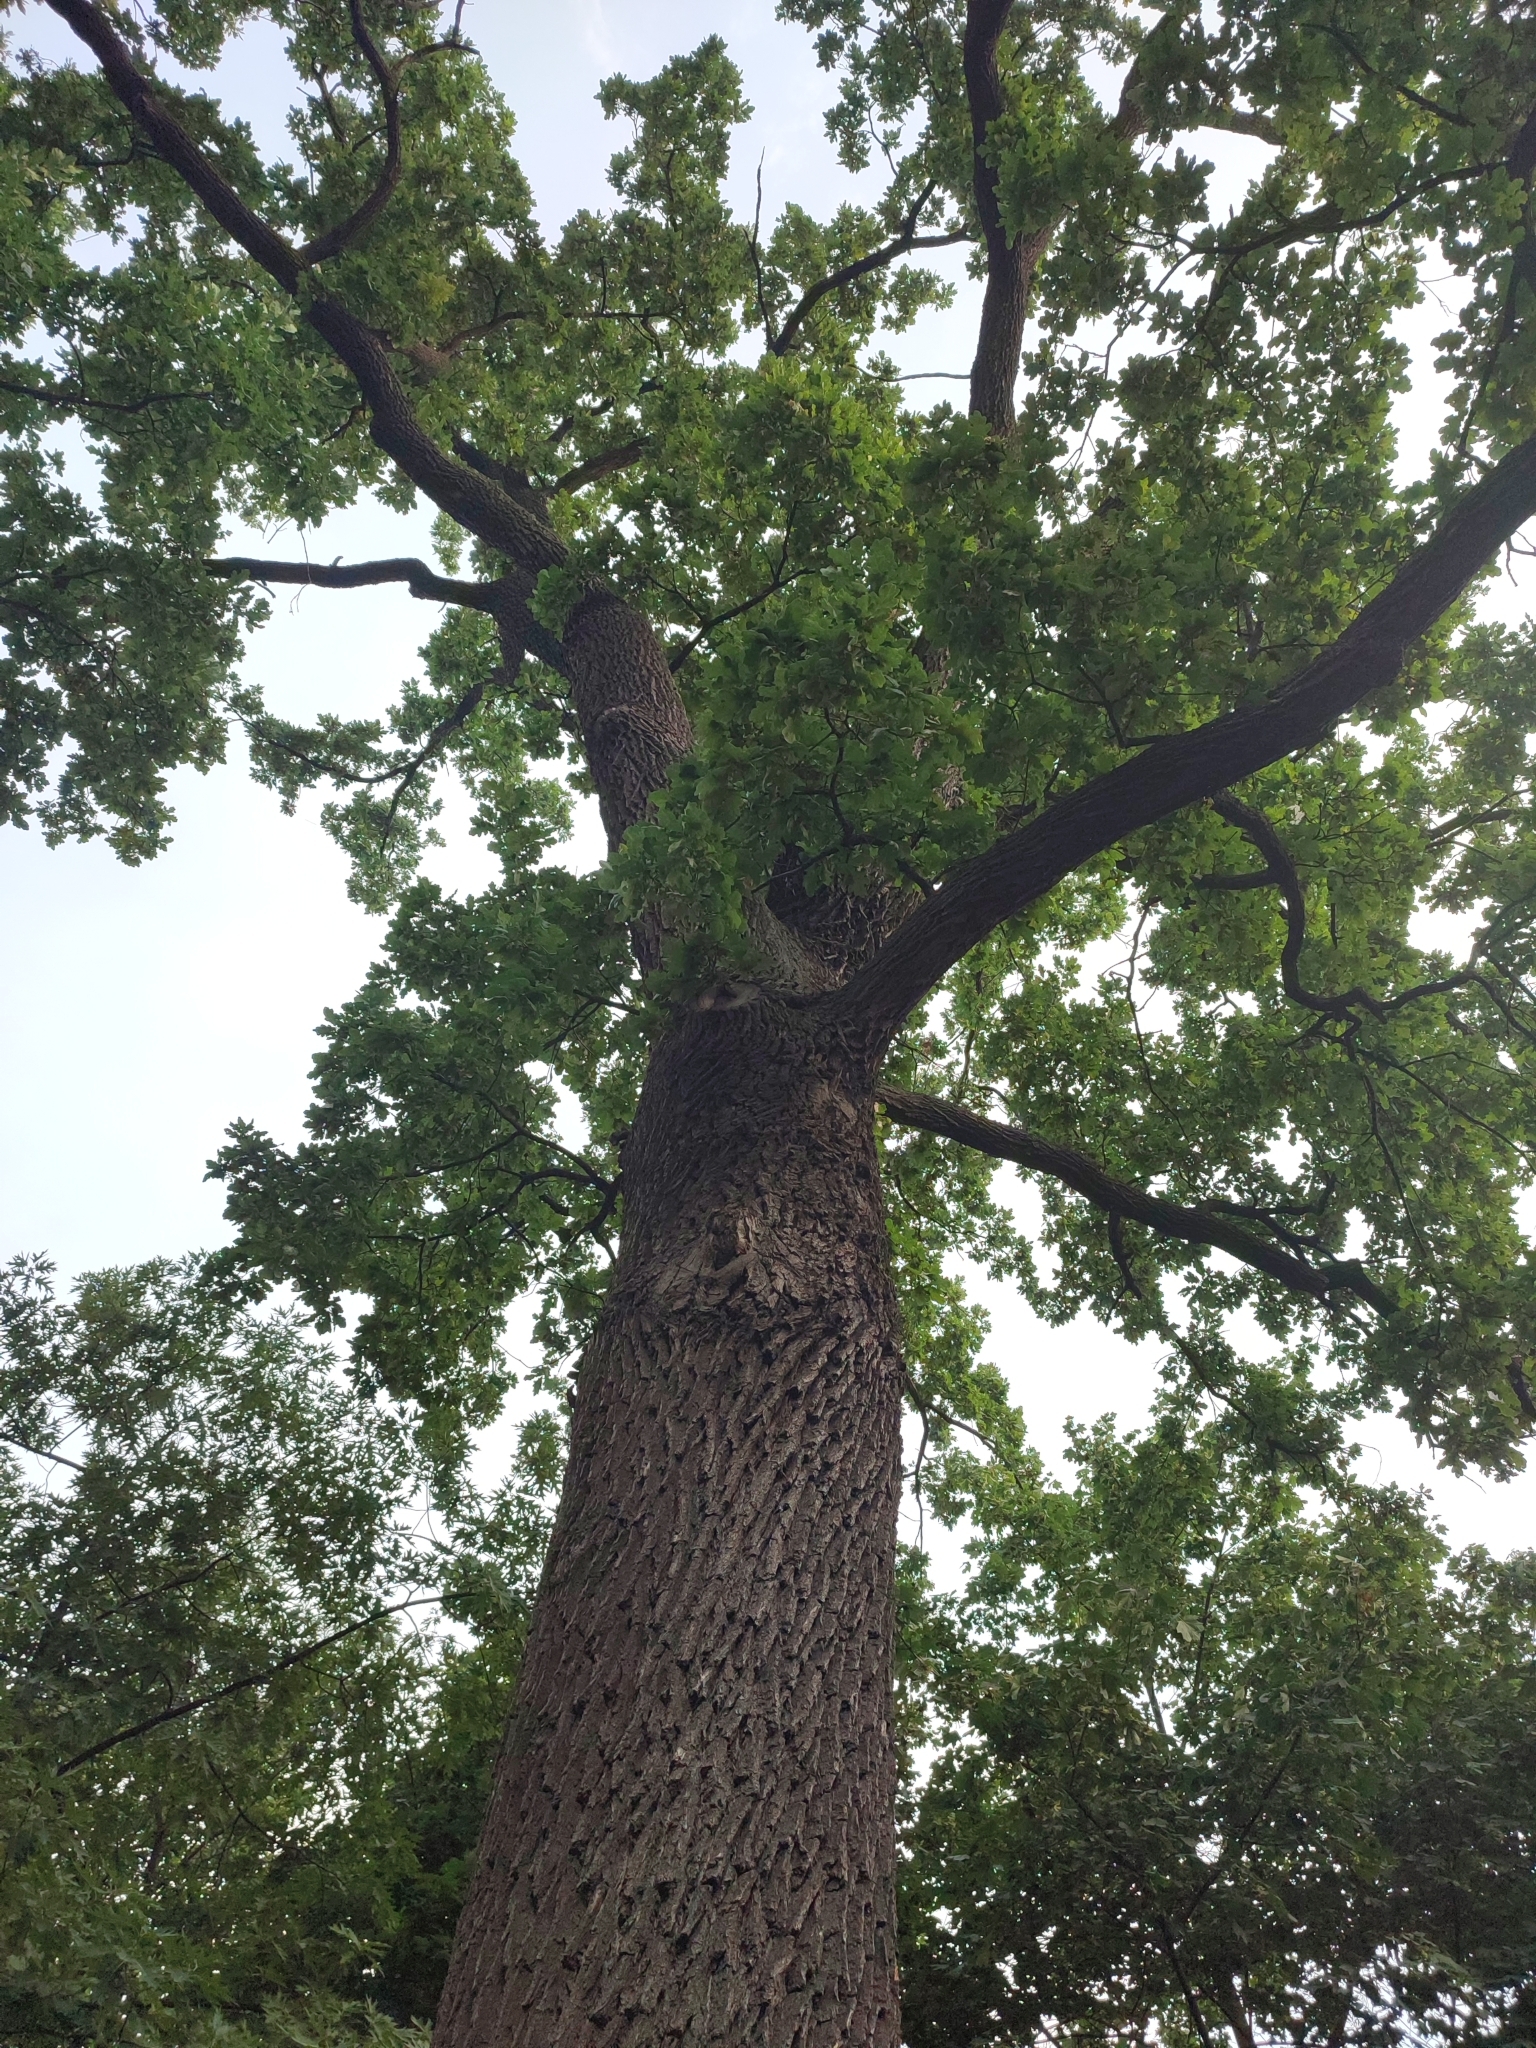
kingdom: Plantae
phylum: Tracheophyta
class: Magnoliopsida
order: Fagales
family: Fagaceae
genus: Quercus
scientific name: Quercus robur
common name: Pedunculate oak
